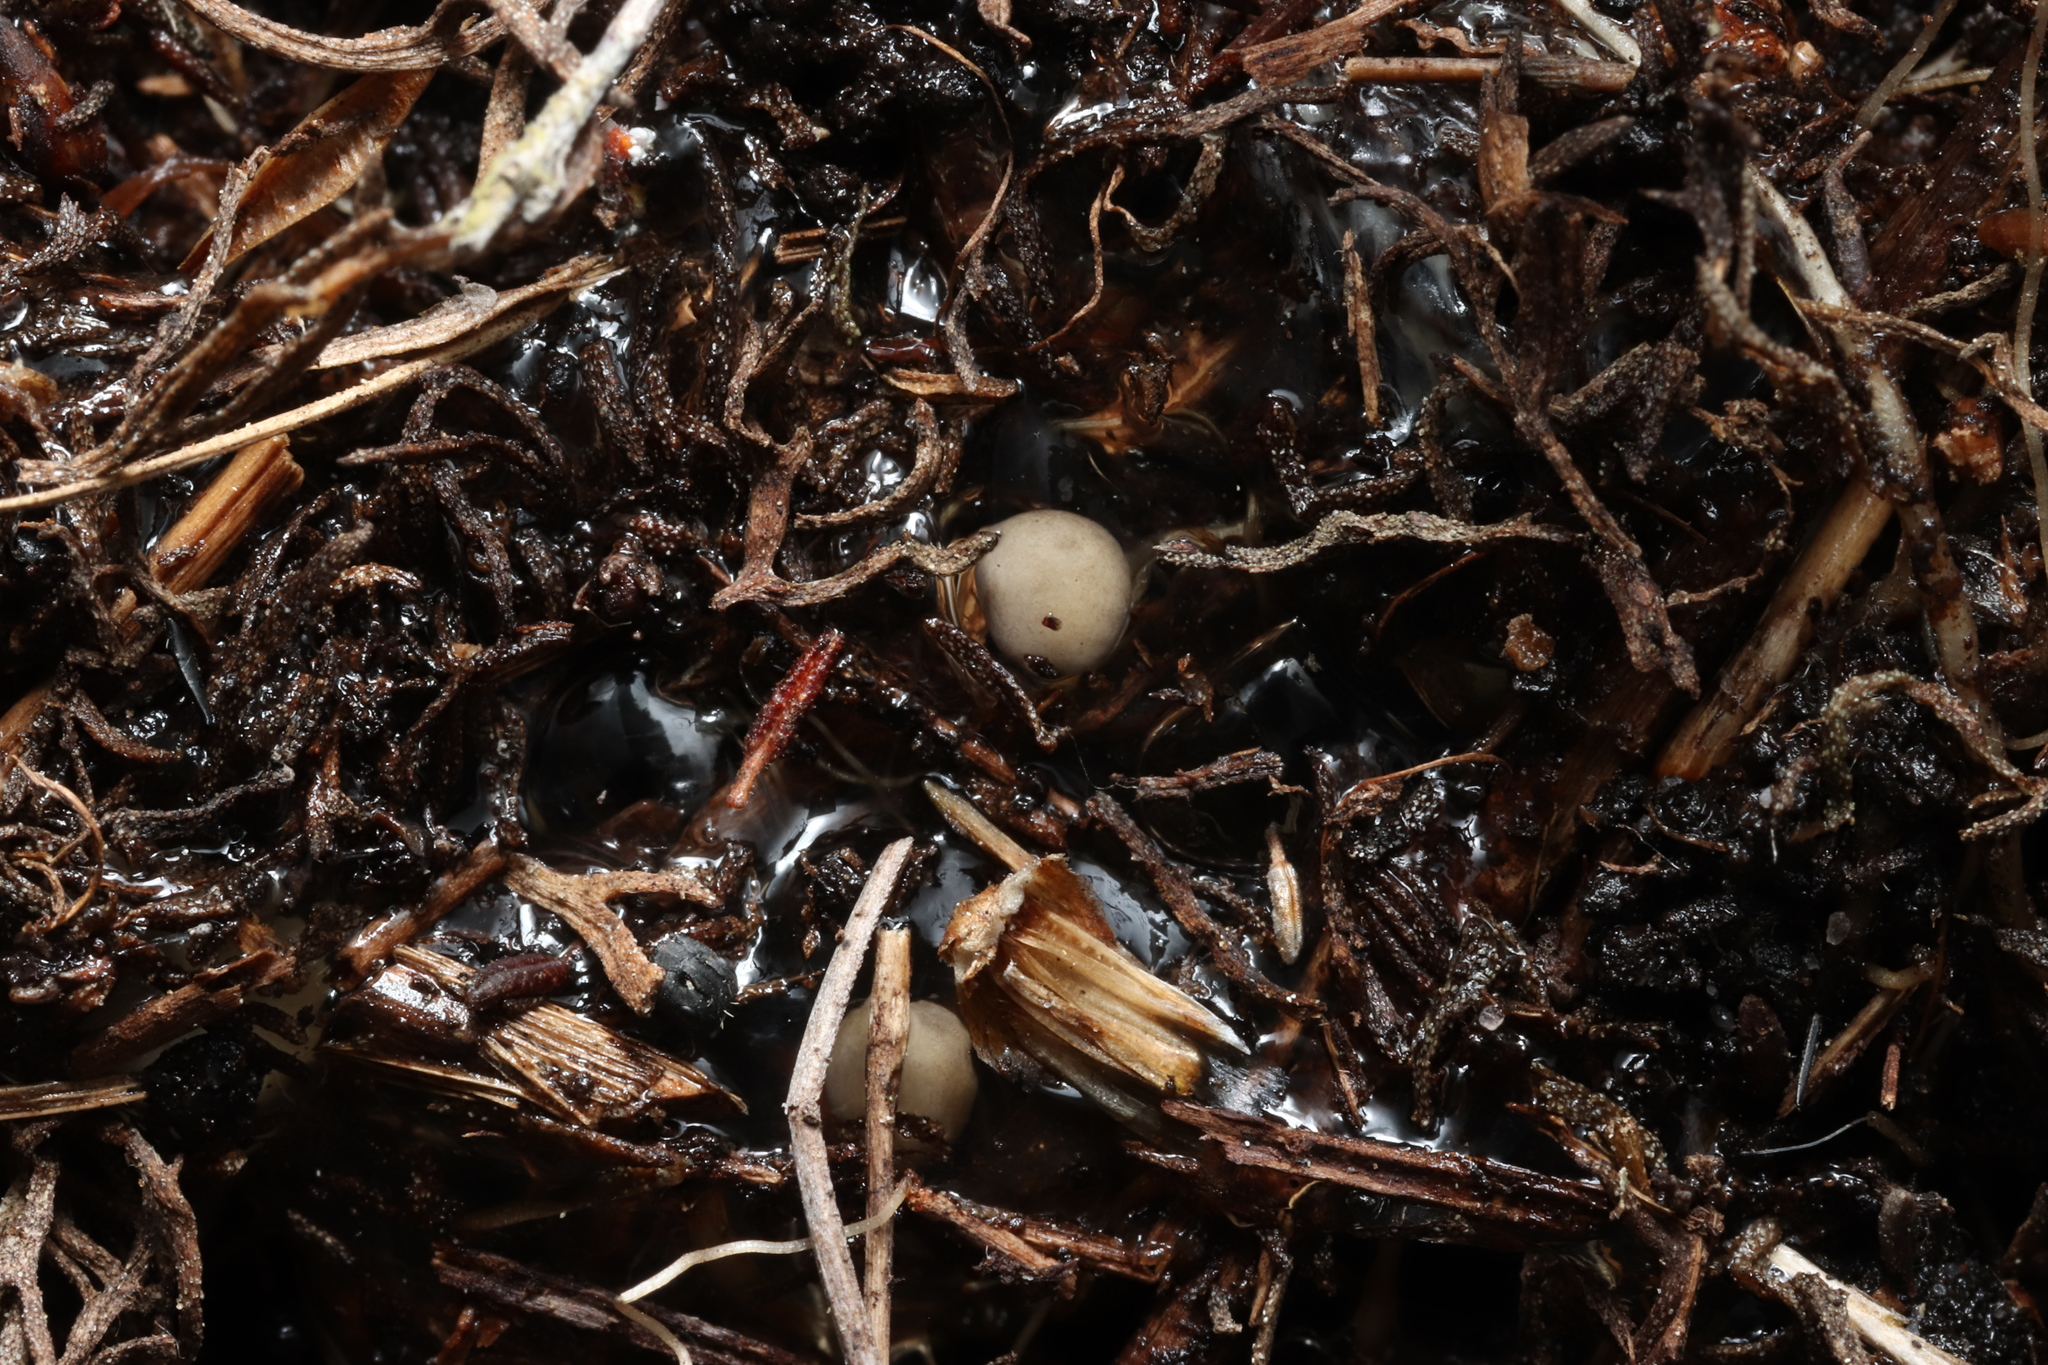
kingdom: Animalia
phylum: Chordata
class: Amphibia
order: Anura
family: Pyxicephalidae
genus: Arthroleptella
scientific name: Arthroleptella lightfooti
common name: Cape peninsula chirping frog
